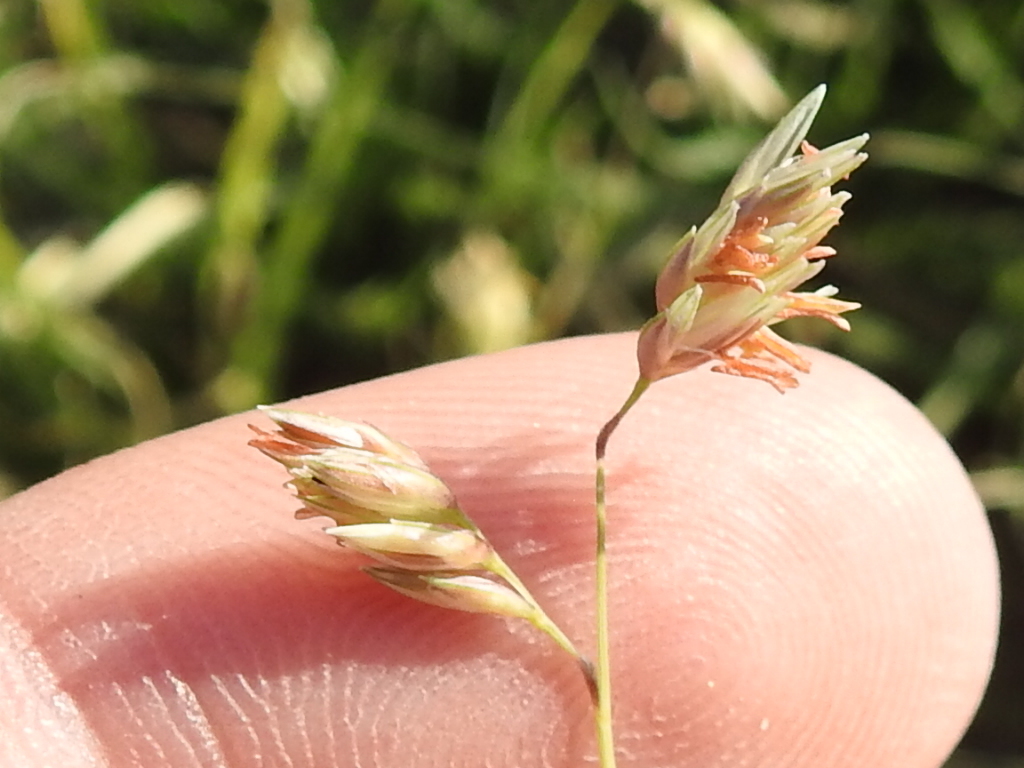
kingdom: Plantae
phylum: Tracheophyta
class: Liliopsida
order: Poales
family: Poaceae
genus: Bouteloua
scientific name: Bouteloua dactyloides
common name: Buffalo grass
